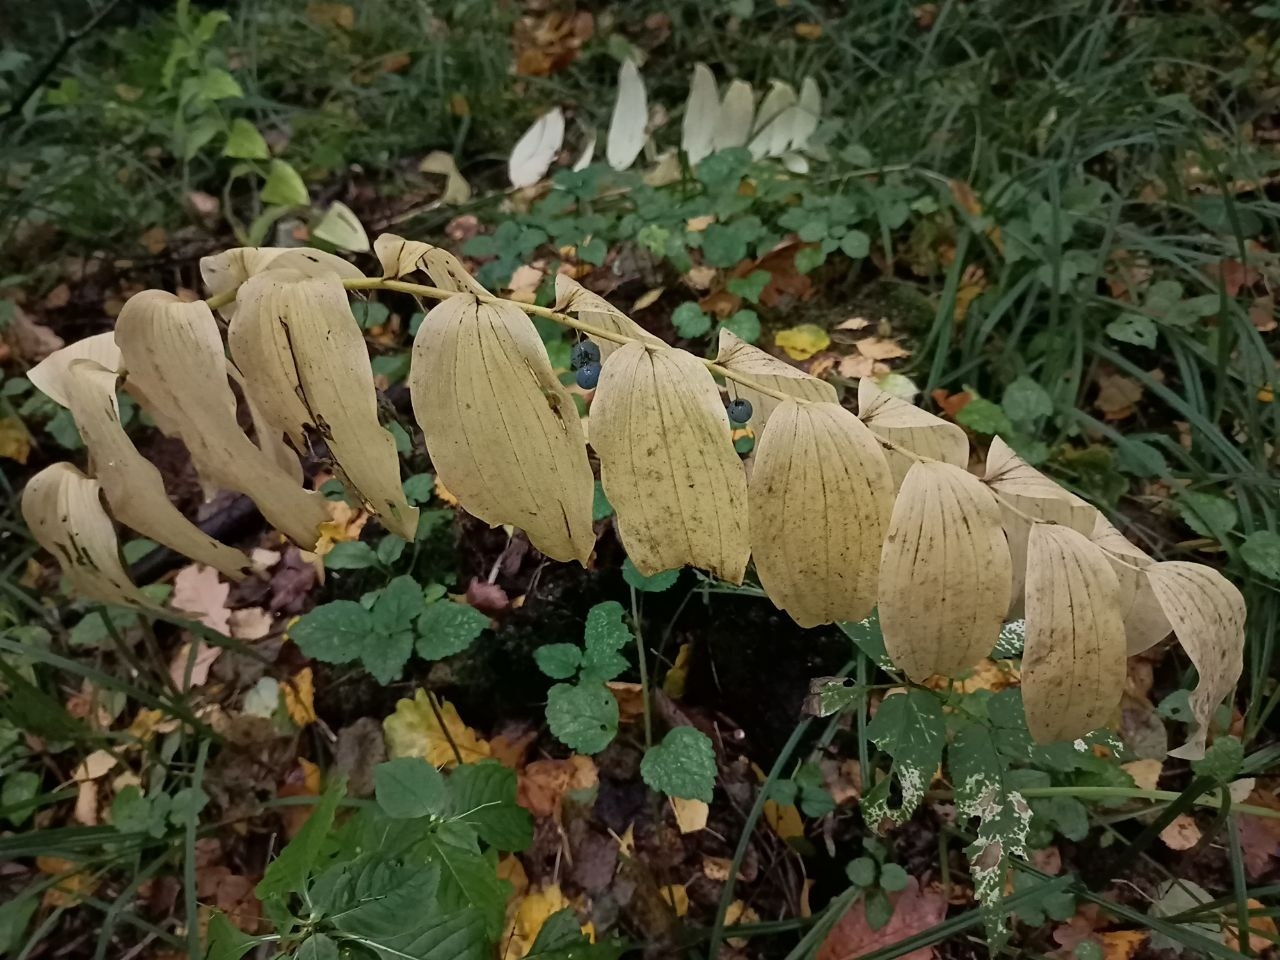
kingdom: Plantae
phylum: Tracheophyta
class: Liliopsida
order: Asparagales
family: Asparagaceae
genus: Polygonatum
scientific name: Polygonatum multiflorum
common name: Solomon's-seal
